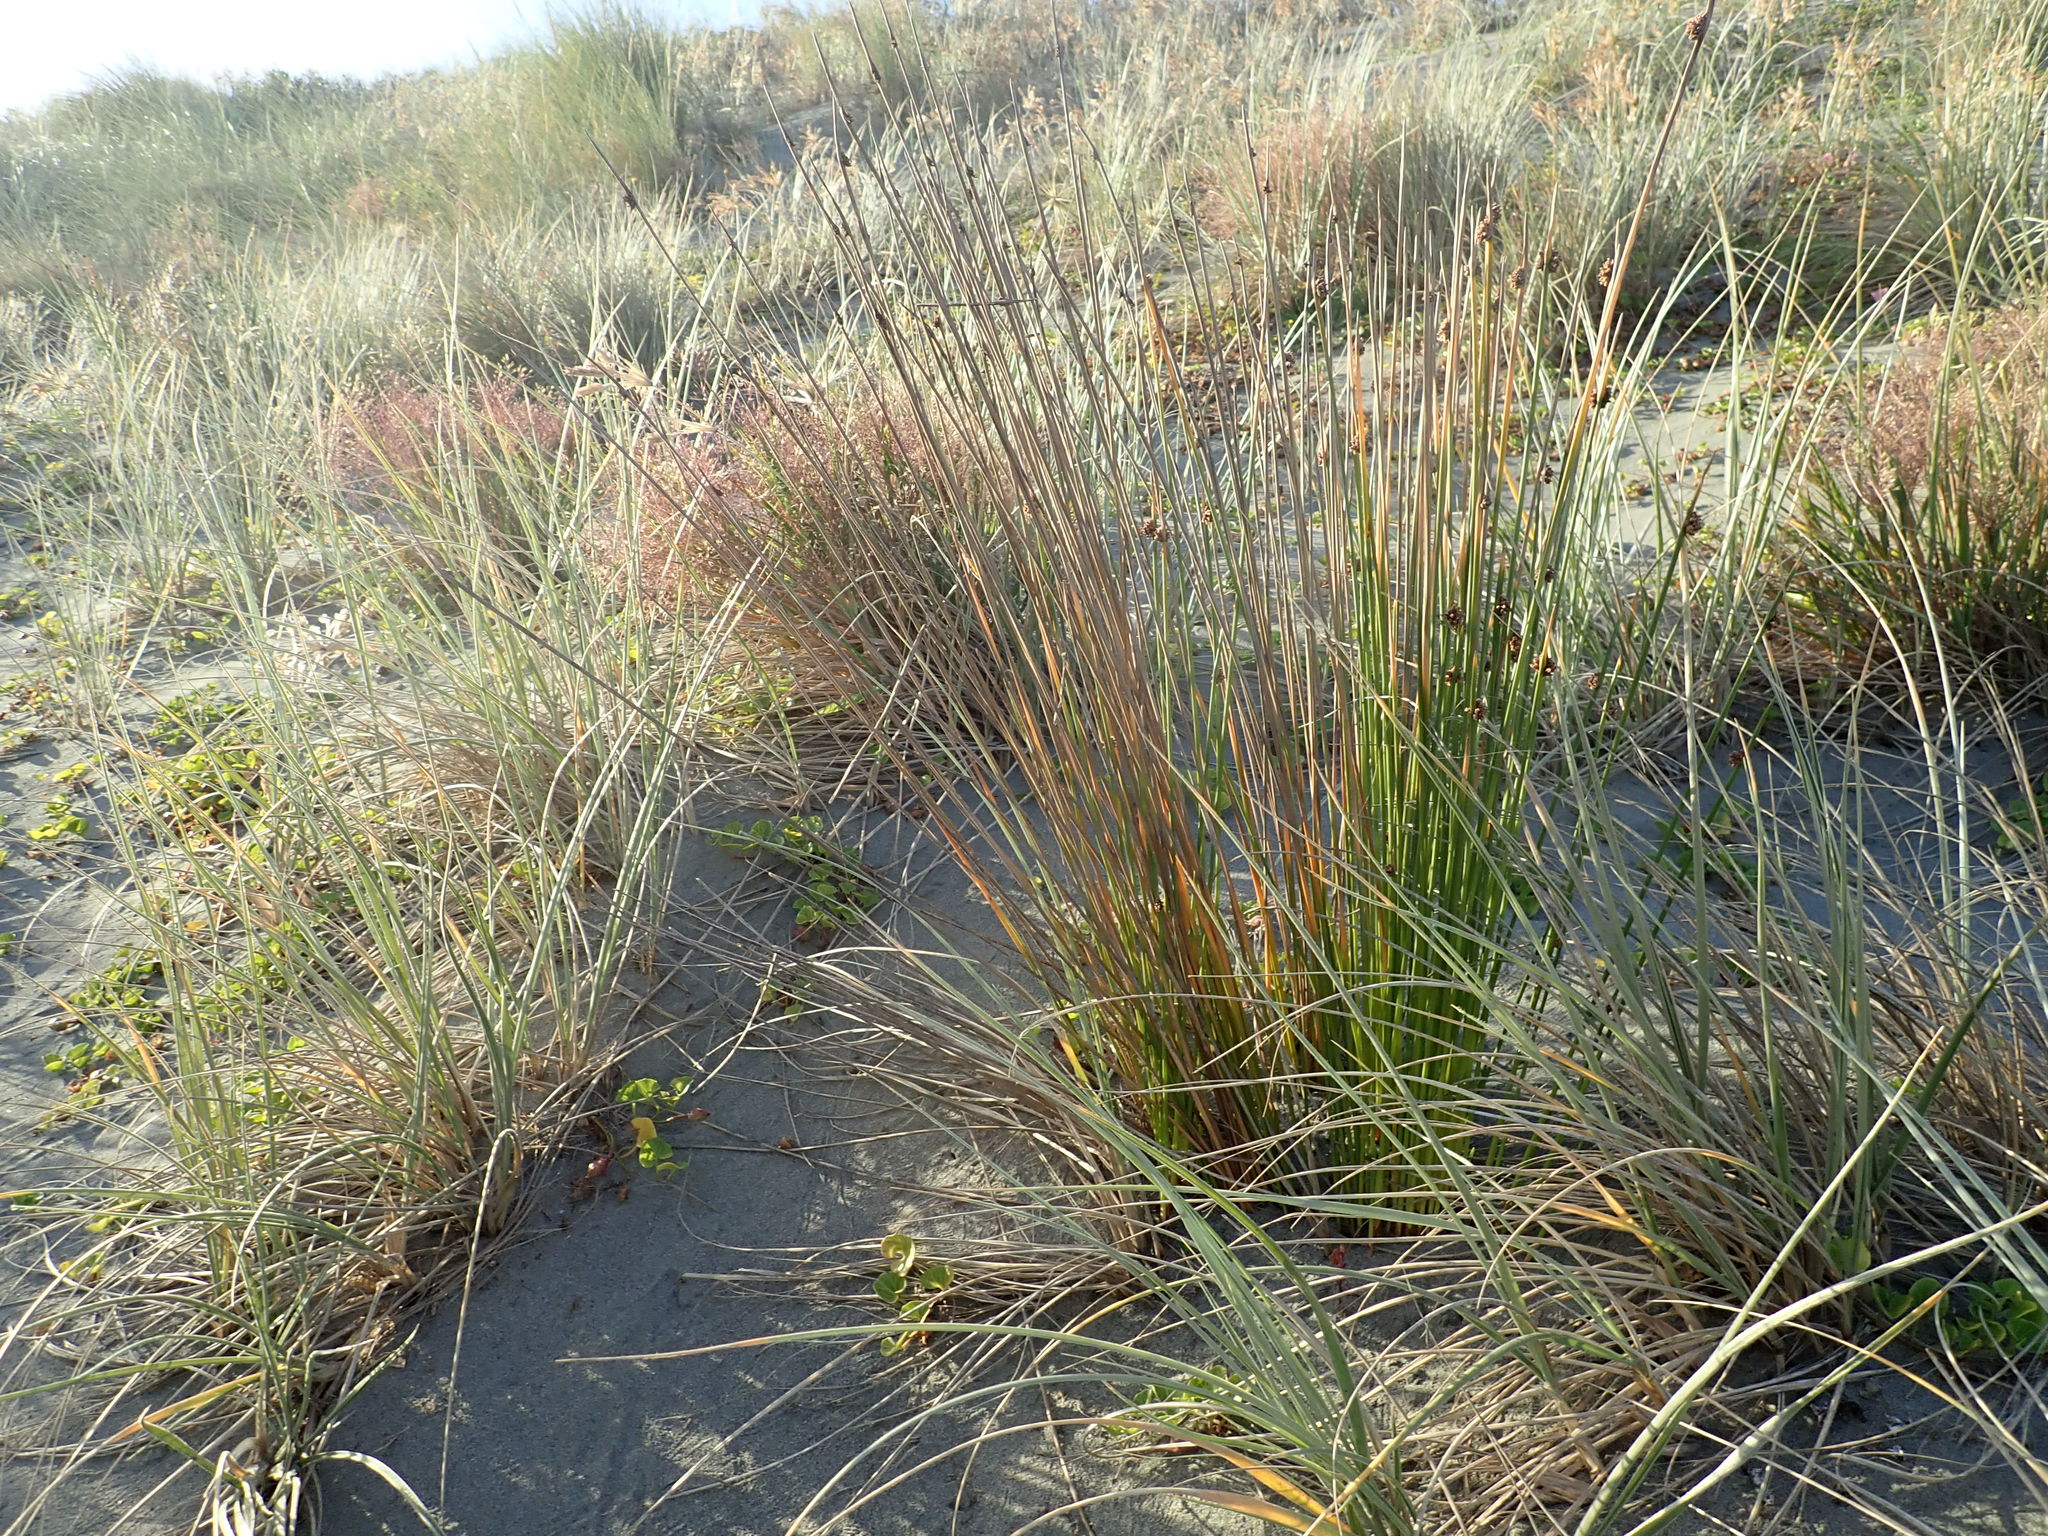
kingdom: Plantae
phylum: Tracheophyta
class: Liliopsida
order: Poales
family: Cyperaceae
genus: Ficinia
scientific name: Ficinia nodosa
